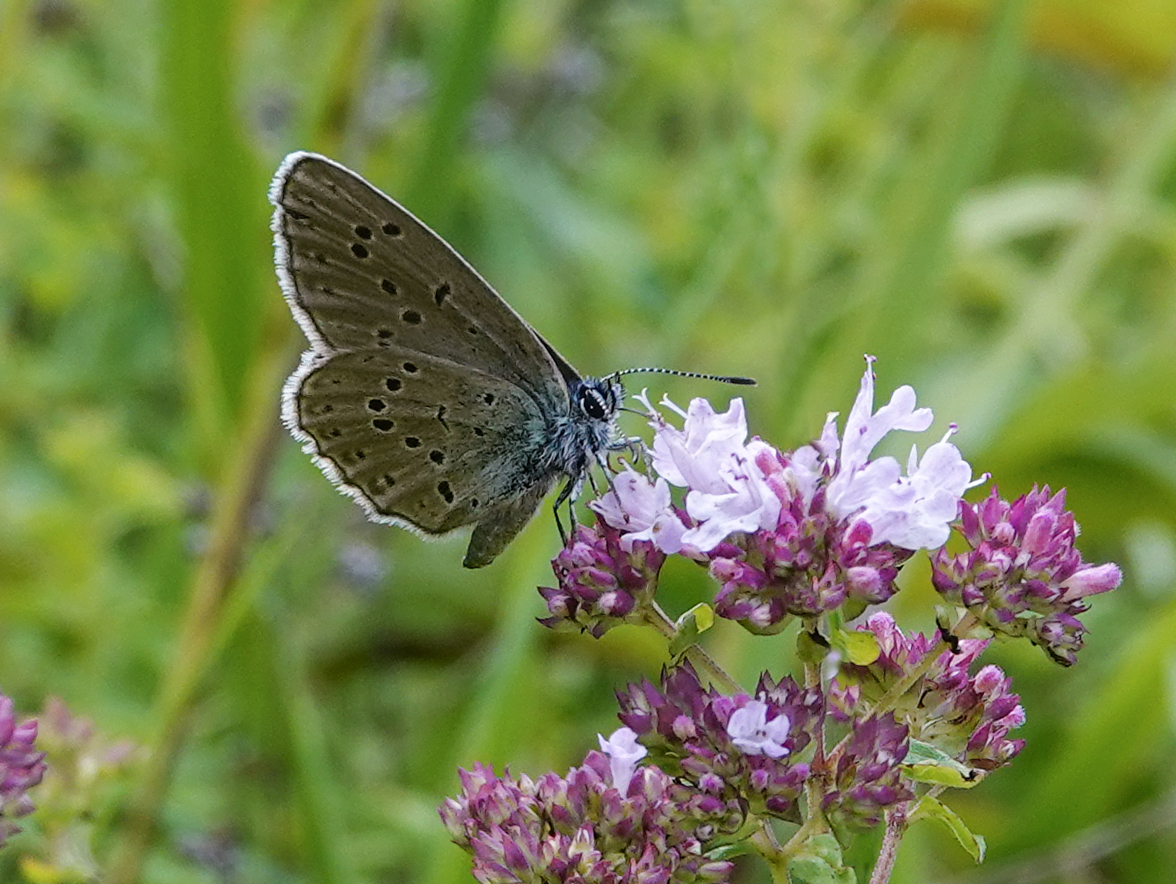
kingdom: Animalia
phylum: Arthropoda
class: Insecta
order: Lepidoptera
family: Lycaenidae
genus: Maculinea
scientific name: Maculinea alcon
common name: Alcon blue
